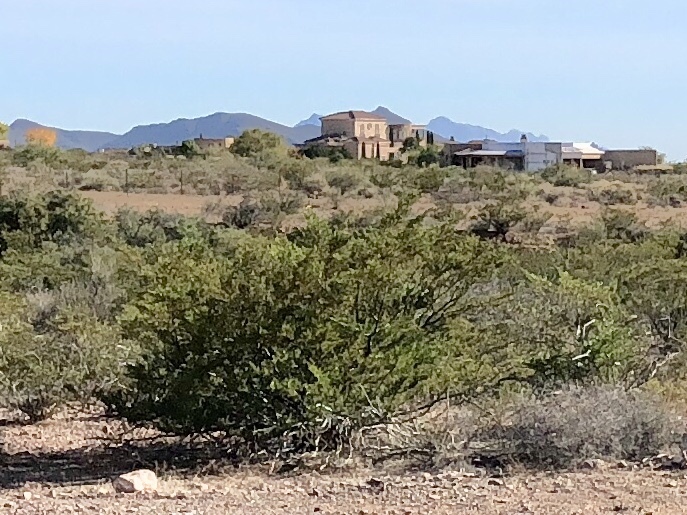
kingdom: Plantae
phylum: Tracheophyta
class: Magnoliopsida
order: Zygophyllales
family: Zygophyllaceae
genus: Larrea
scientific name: Larrea tridentata
